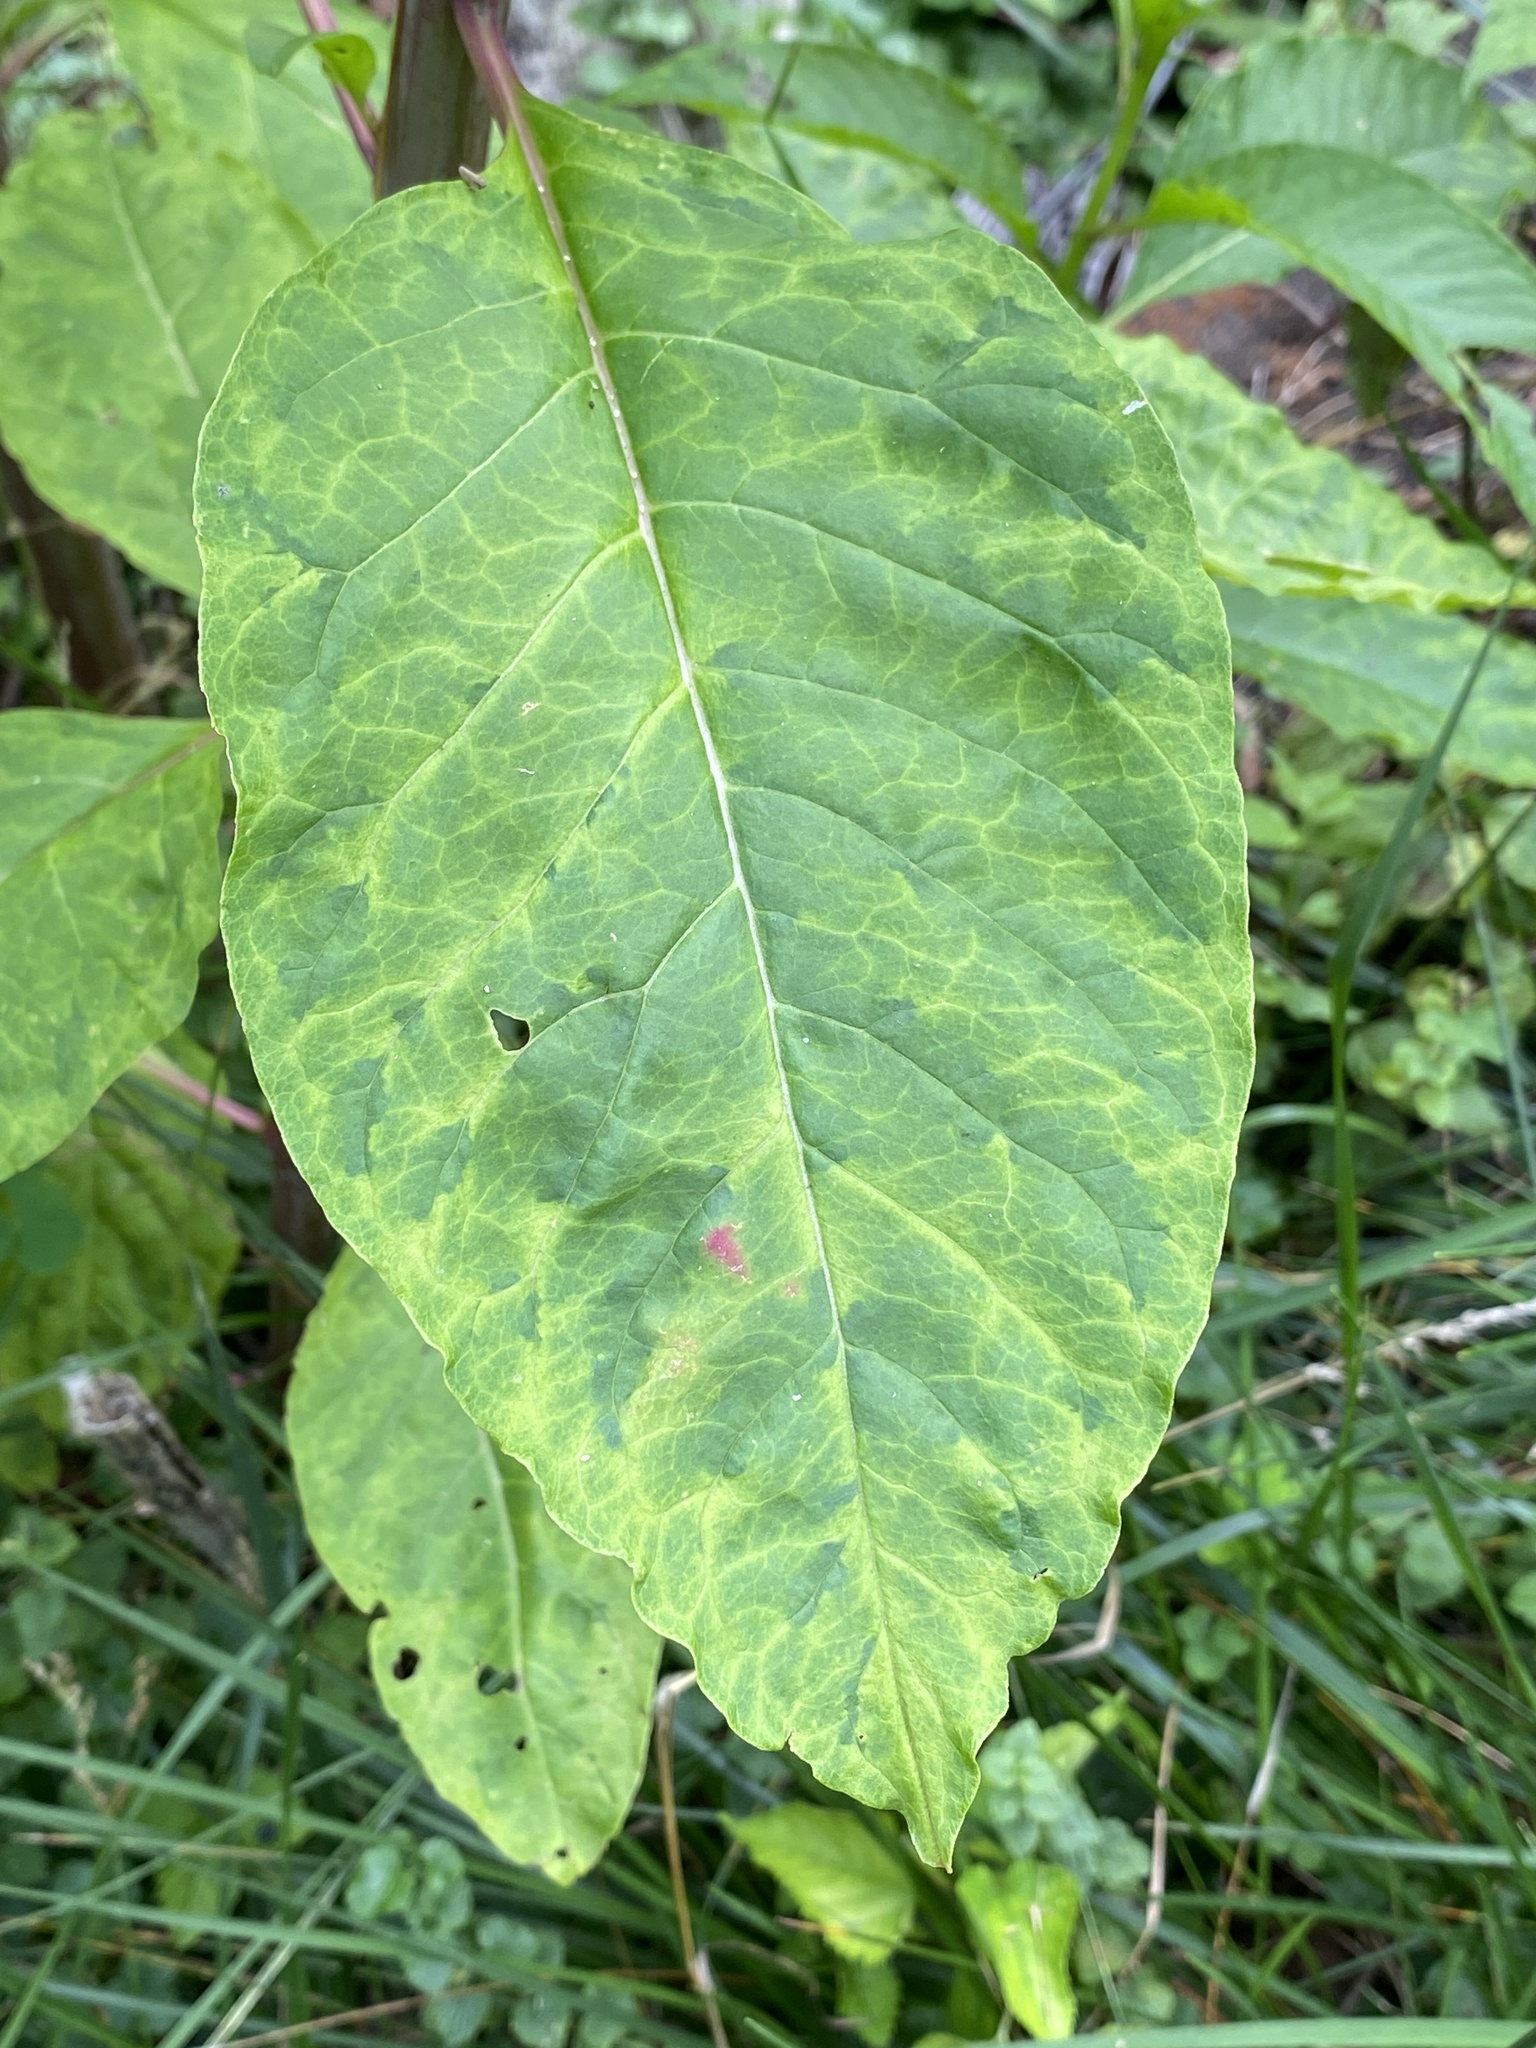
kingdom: Viruses
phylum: Pisuviricota
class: Stelpaviricetes
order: Patatavirales
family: Potyviridae
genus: Potyvirus
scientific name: Potyvirus Pokeweed mosaic virus
